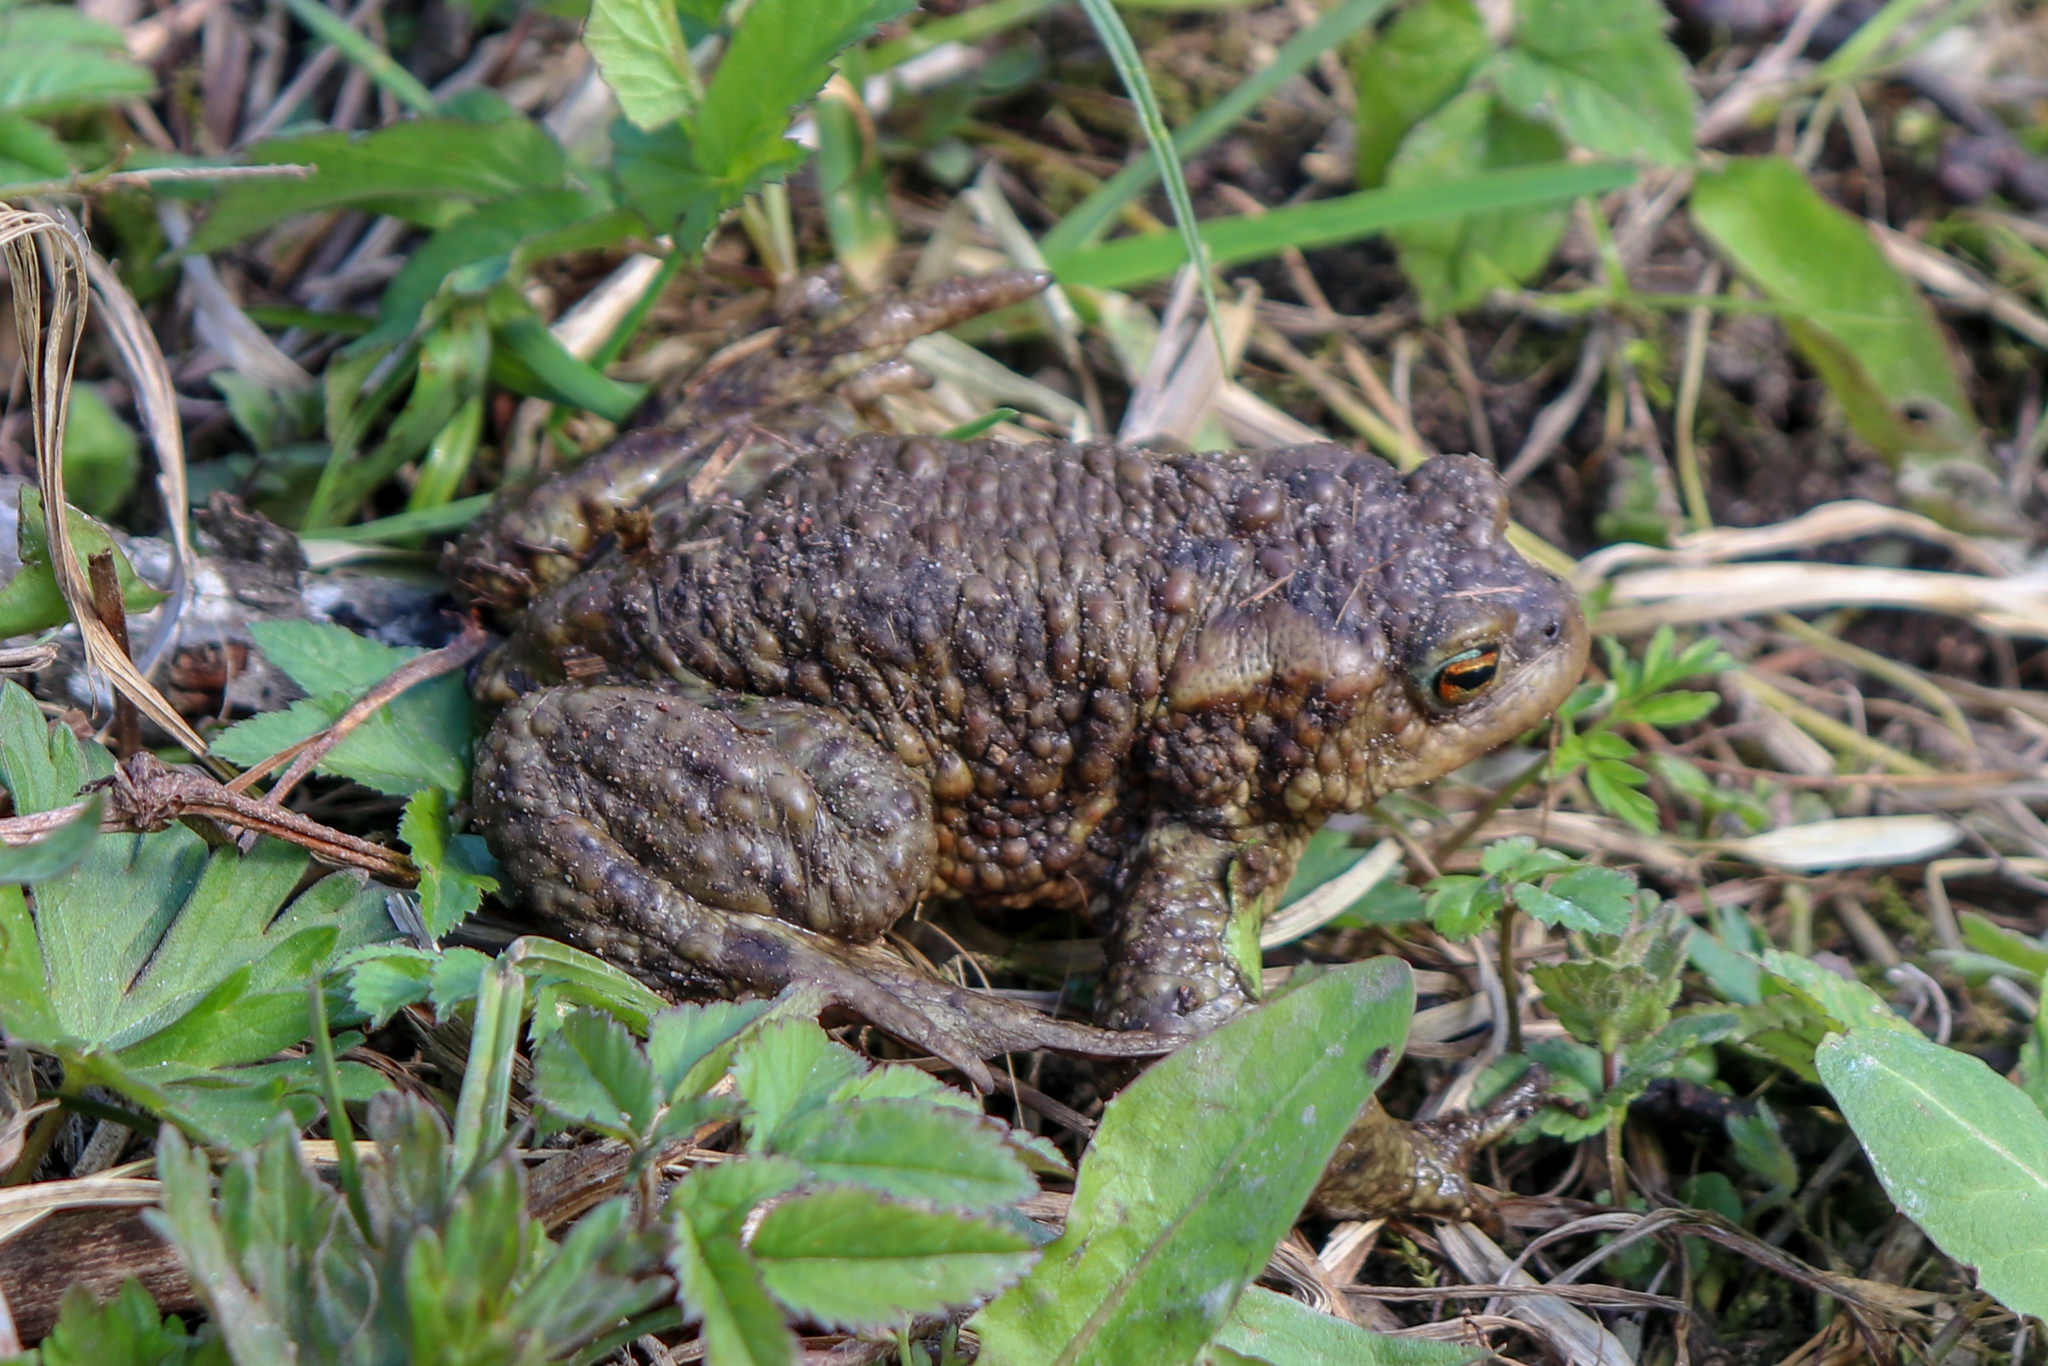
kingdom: Animalia
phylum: Chordata
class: Amphibia
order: Anura
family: Bufonidae
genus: Bufo
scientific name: Bufo bufo
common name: Common toad
